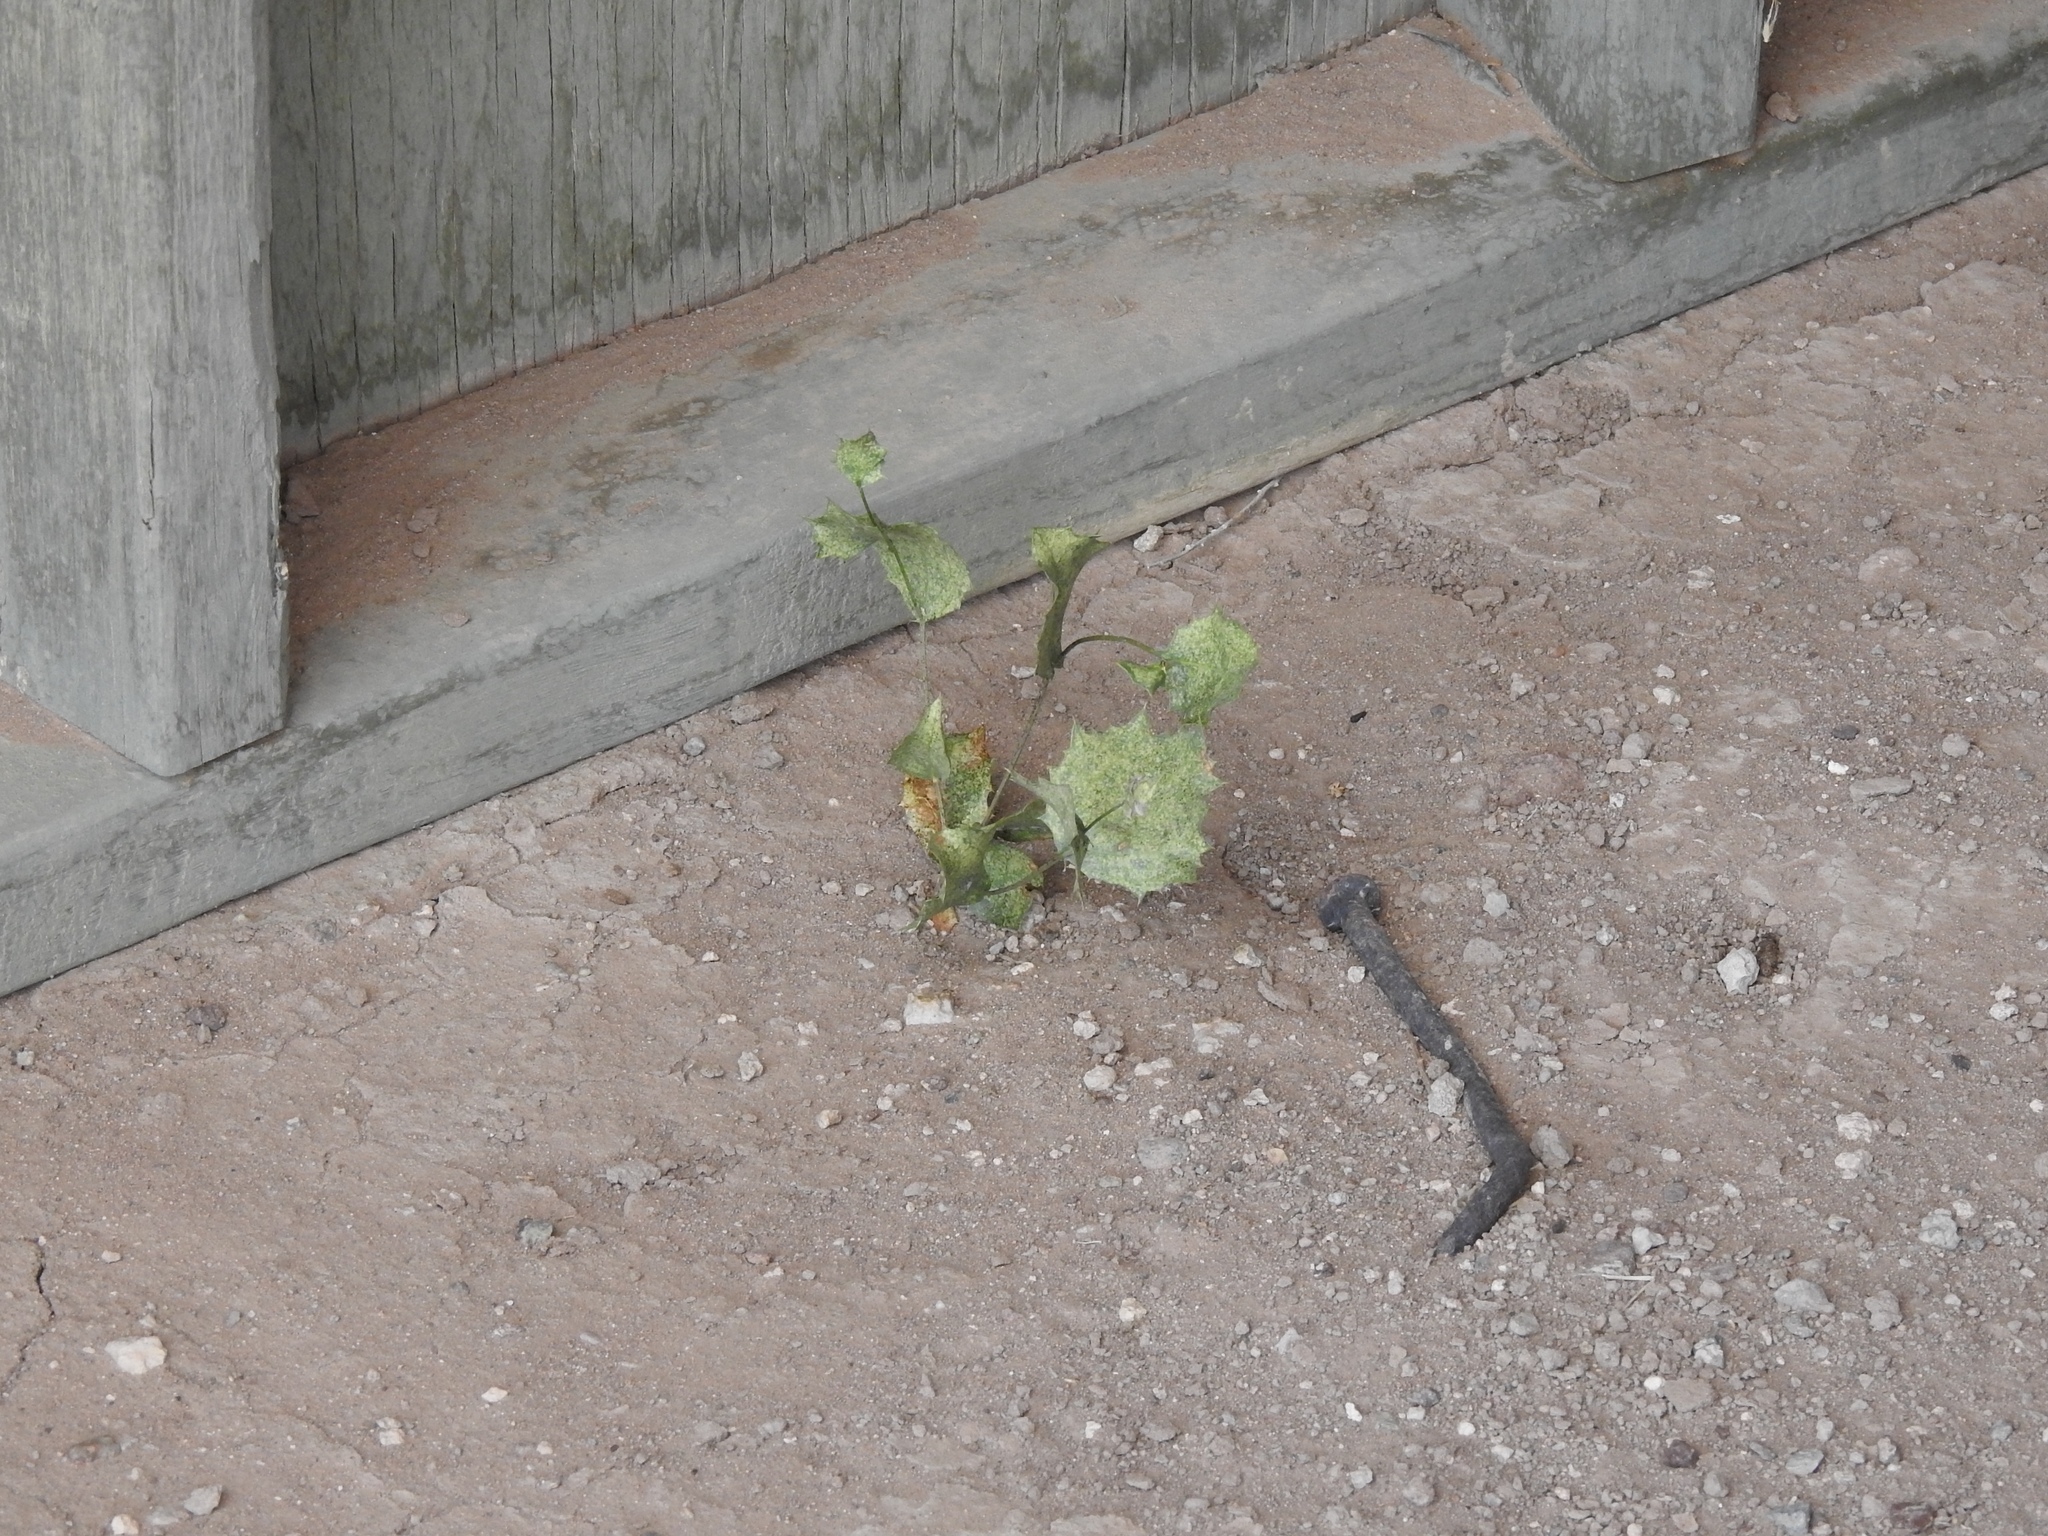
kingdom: Plantae
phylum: Tracheophyta
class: Magnoliopsida
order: Asterales
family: Asteraceae
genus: Acourtia
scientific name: Acourtia nana
